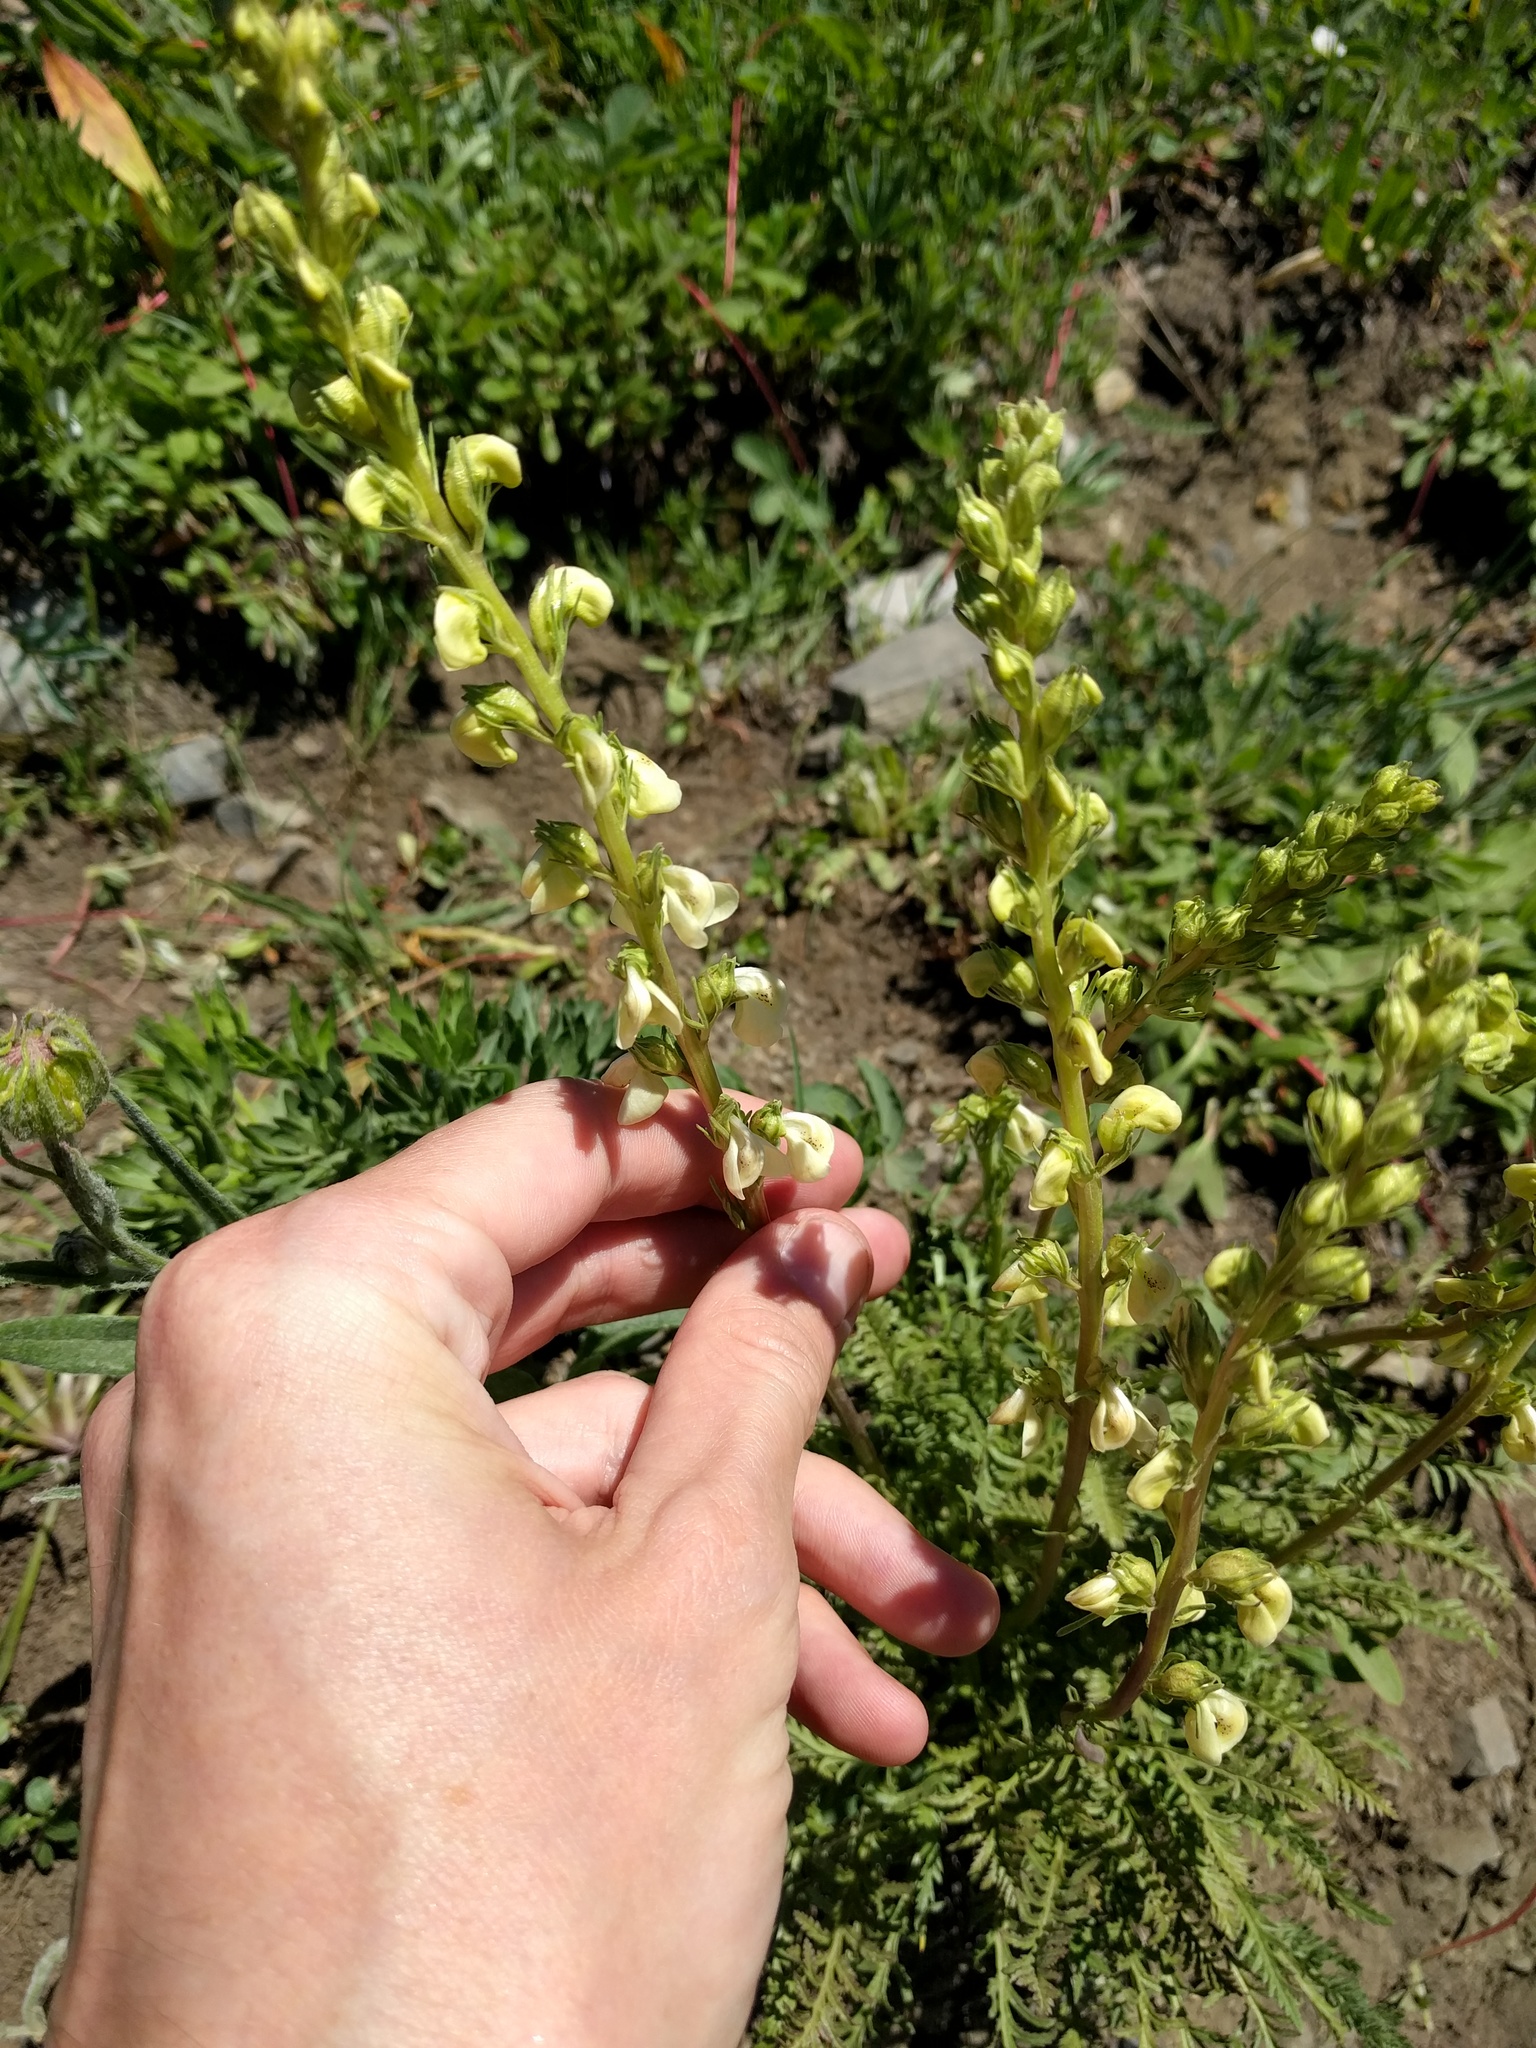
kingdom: Plantae
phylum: Tracheophyta
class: Magnoliopsida
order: Lamiales
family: Orobanchaceae
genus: Pedicularis
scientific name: Pedicularis contorta
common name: Coiled lousewort
